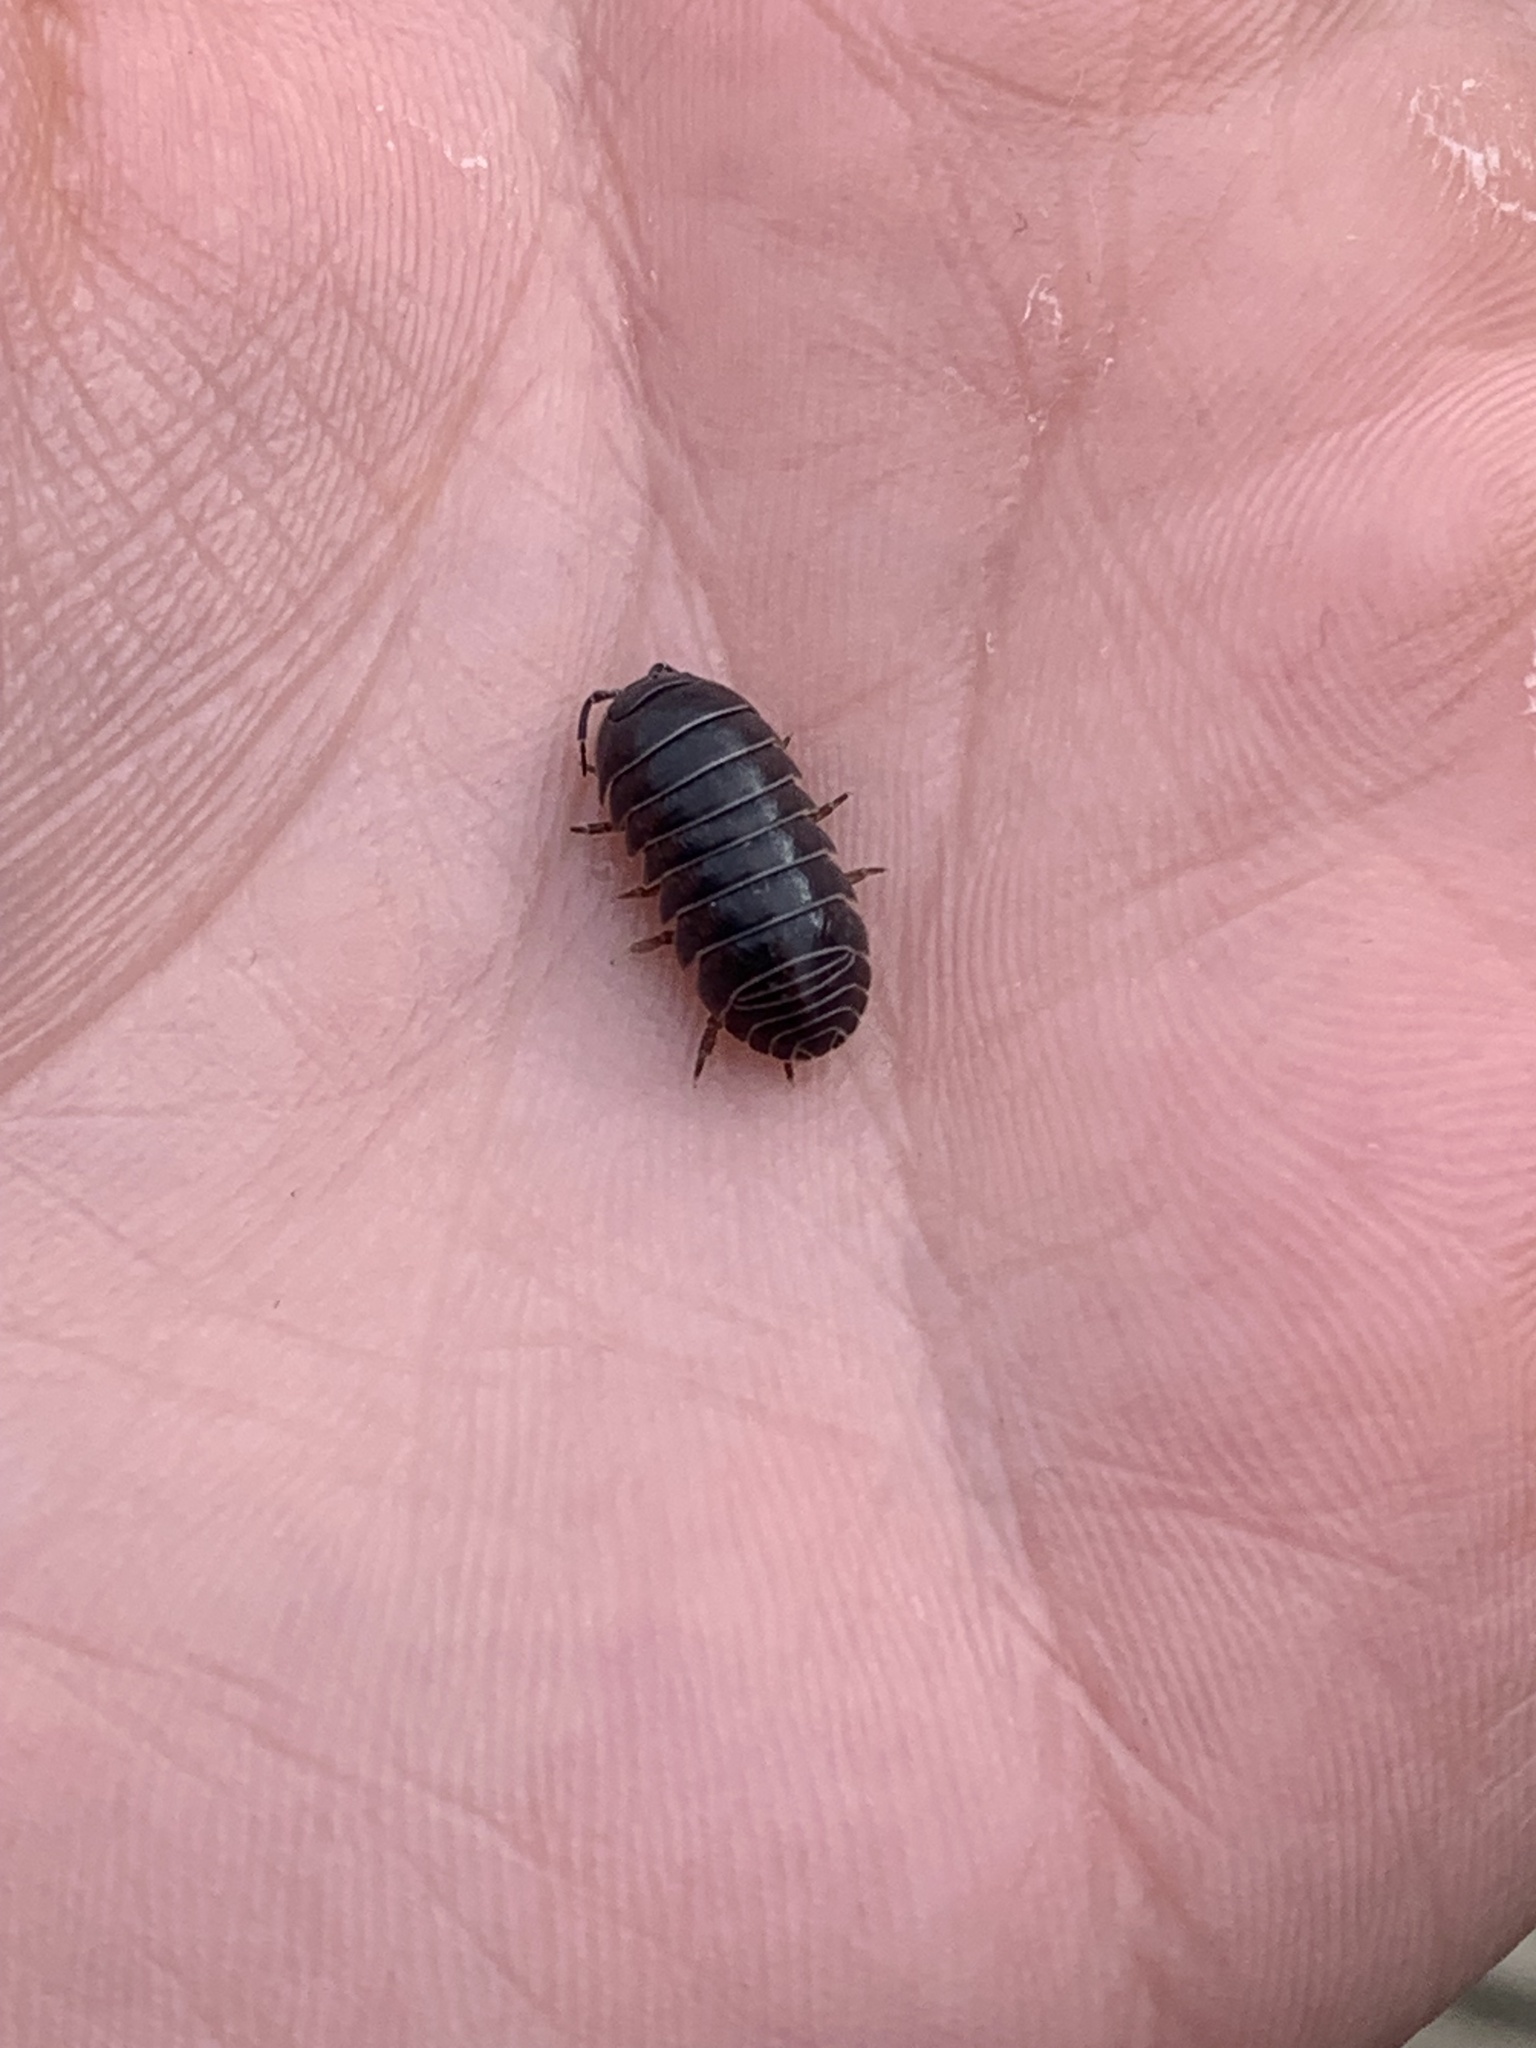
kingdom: Animalia
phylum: Arthropoda
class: Malacostraca
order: Isopoda
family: Armadillidiidae
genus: Armadillidium
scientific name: Armadillidium vulgare
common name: Common pill woodlouse
